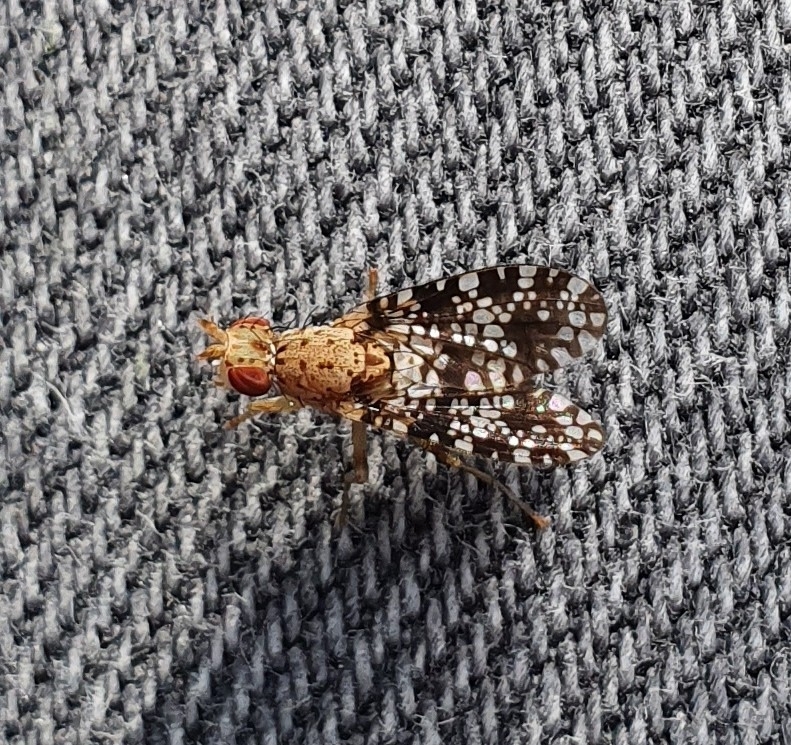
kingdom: Animalia
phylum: Arthropoda
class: Insecta
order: Diptera
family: Sciomyzidae
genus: Trypetoptera
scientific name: Trypetoptera punctulata
